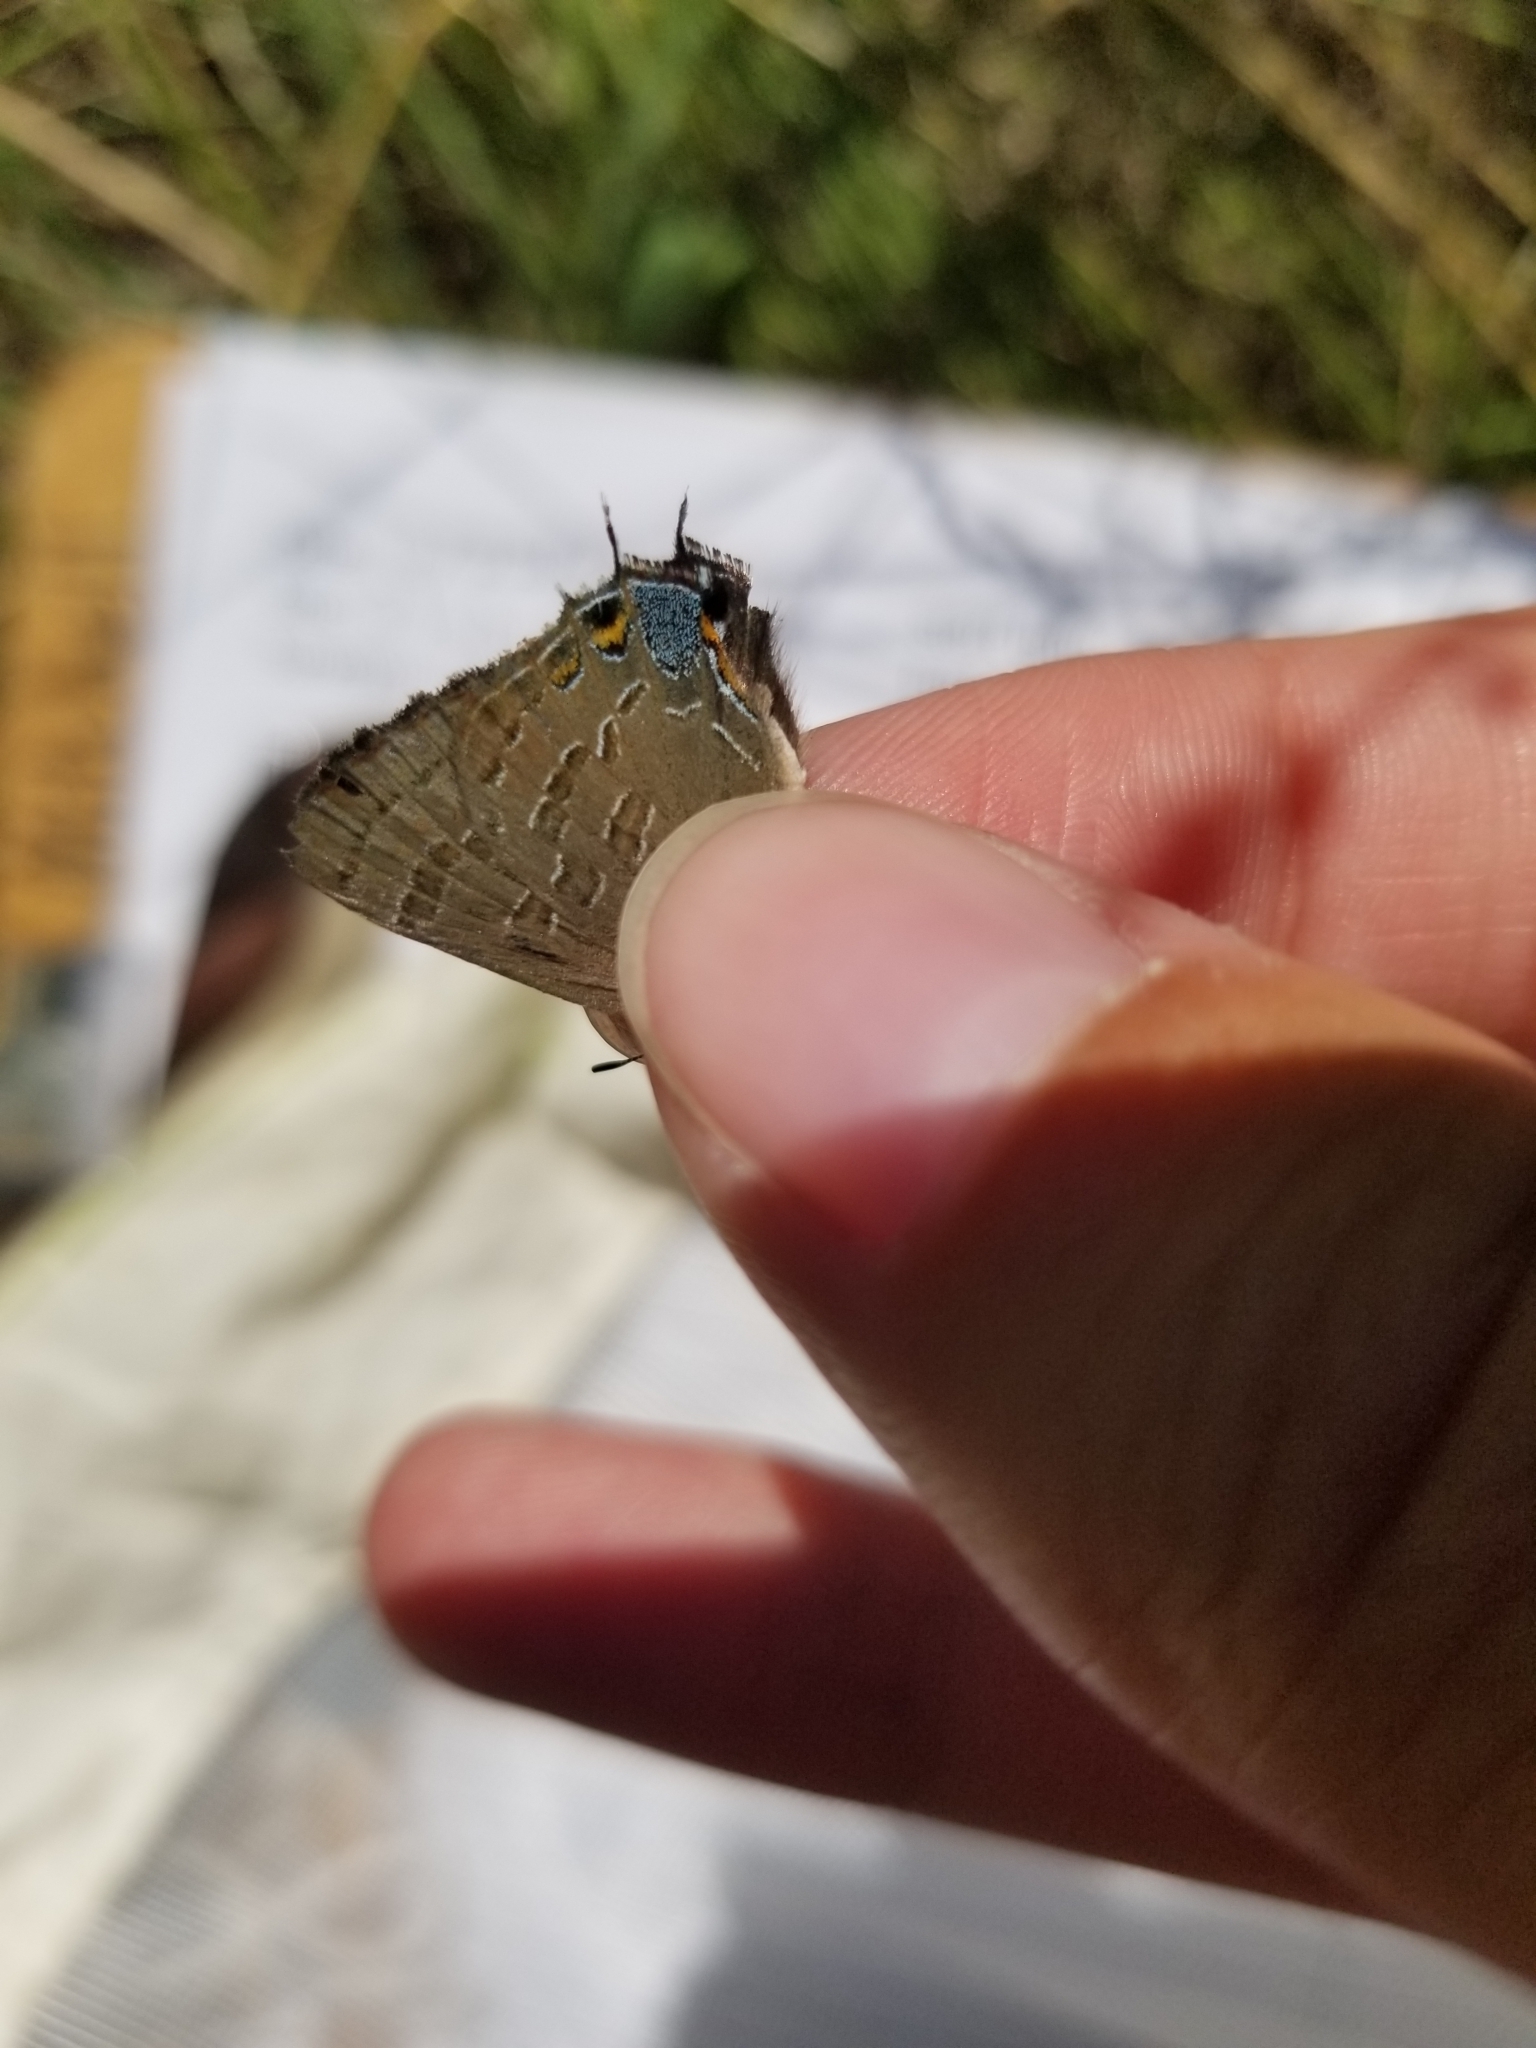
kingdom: Animalia
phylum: Arthropoda
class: Insecta
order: Lepidoptera
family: Lycaenidae
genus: Strymon
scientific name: Strymon caryaevorus
